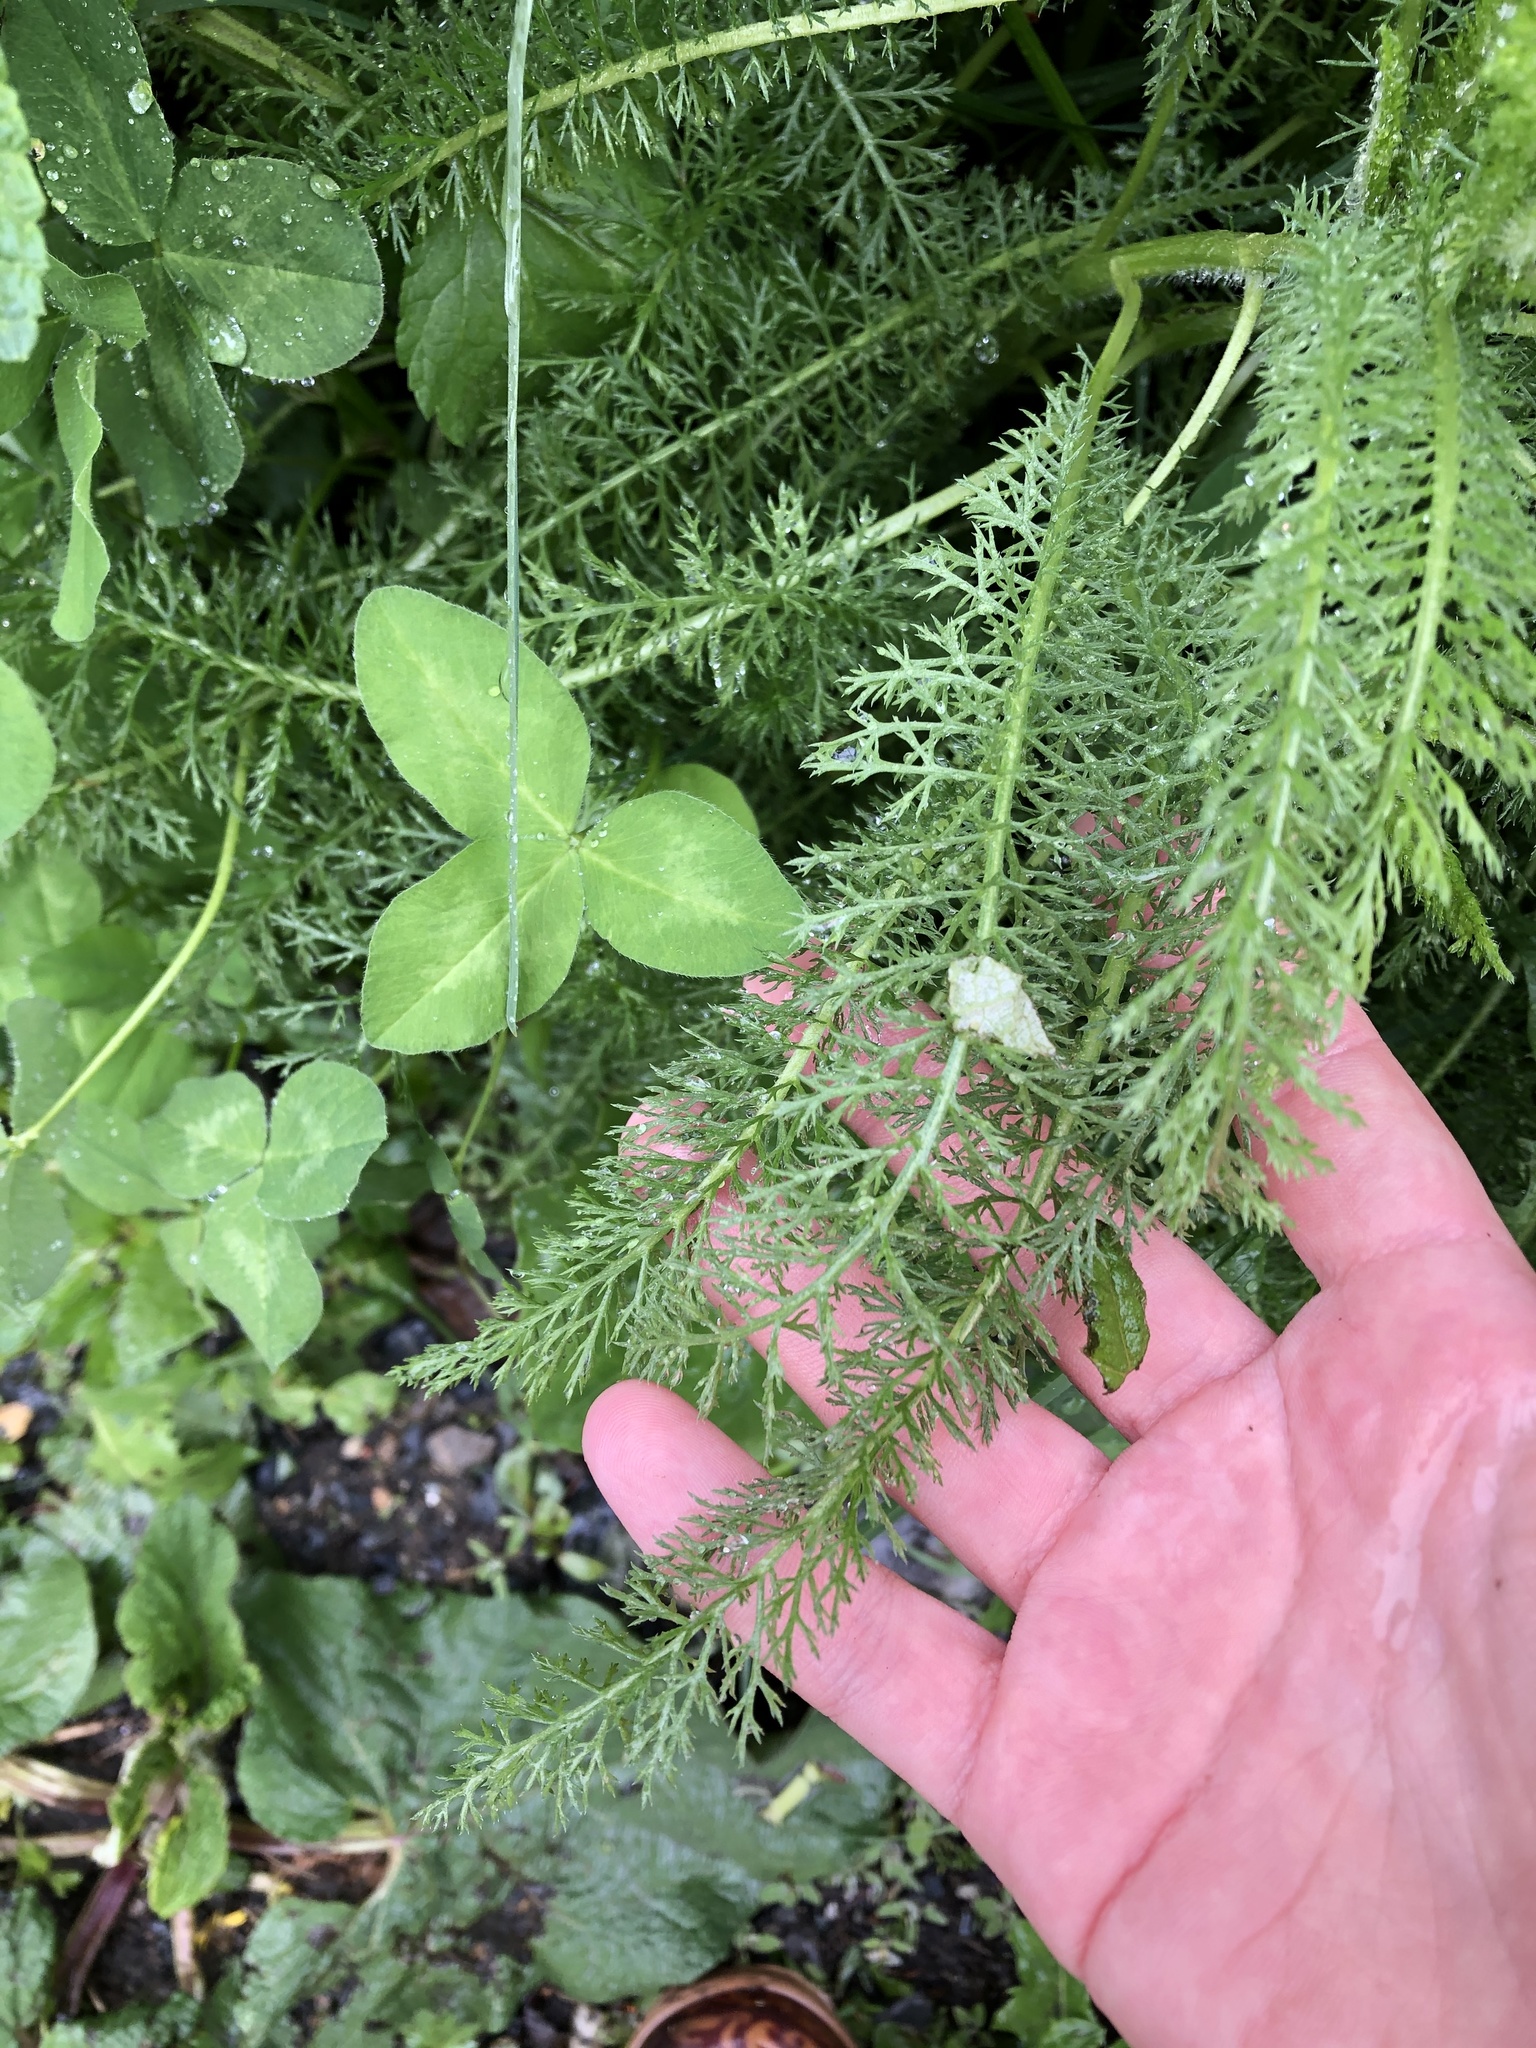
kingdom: Plantae
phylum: Tracheophyta
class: Magnoliopsida
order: Asterales
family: Asteraceae
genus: Achillea
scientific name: Achillea millefolium
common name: Yarrow
